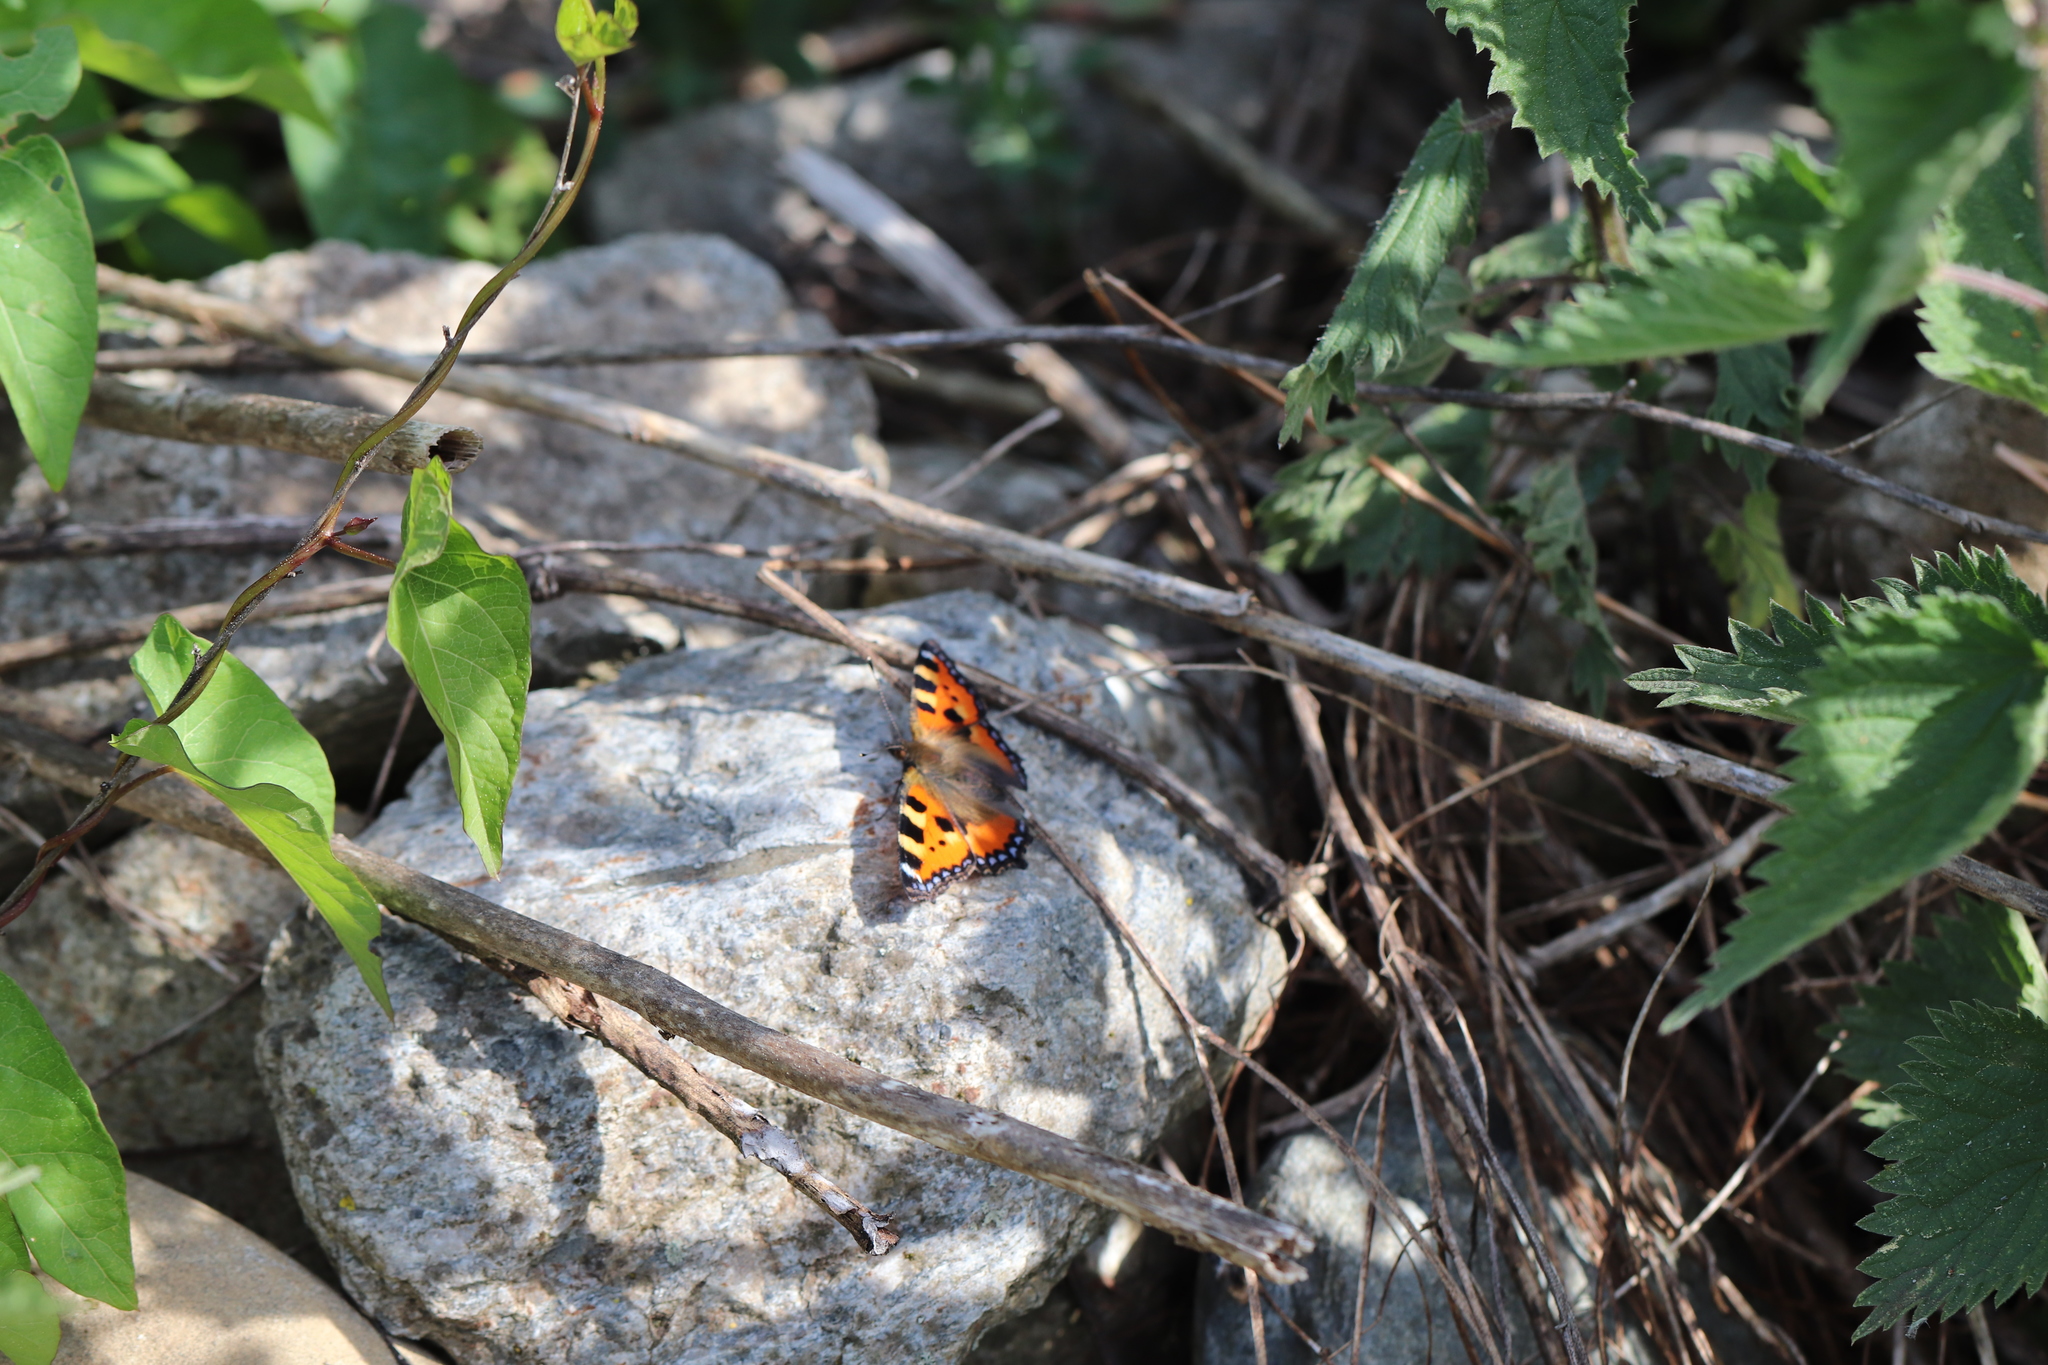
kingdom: Animalia
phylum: Arthropoda
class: Insecta
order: Lepidoptera
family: Nymphalidae
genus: Aglais
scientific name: Aglais urticae
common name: Small tortoiseshell
